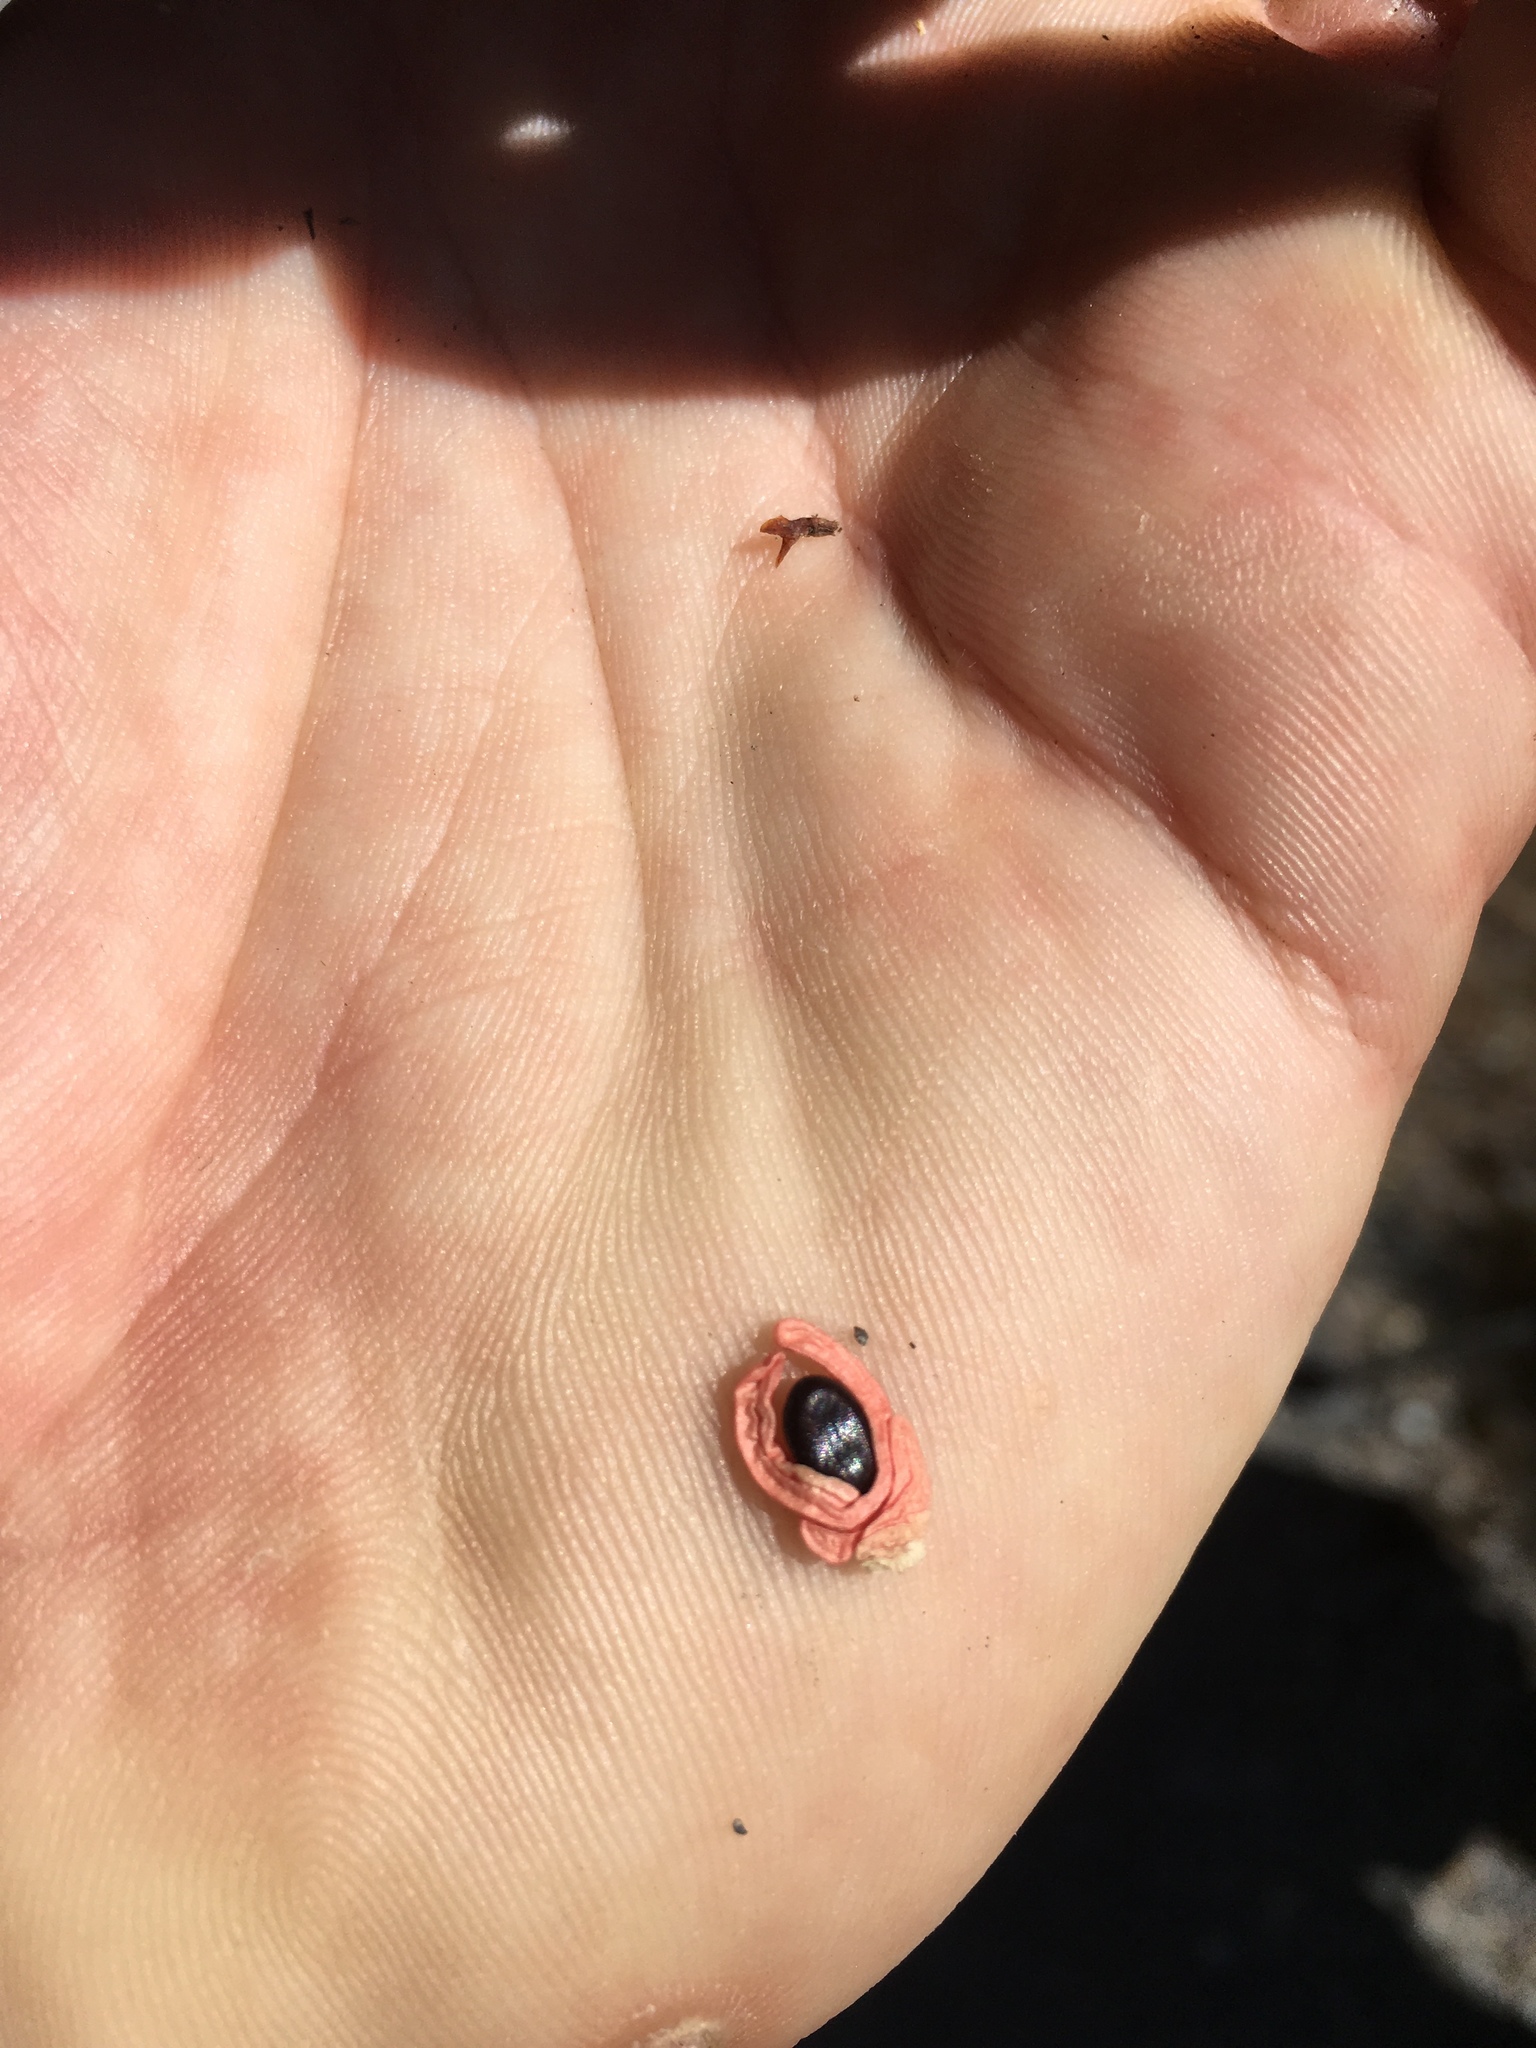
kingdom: Plantae
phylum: Tracheophyta
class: Magnoliopsida
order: Fabales
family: Fabaceae
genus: Acacia
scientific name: Acacia melanoxylon
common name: Blackwood
